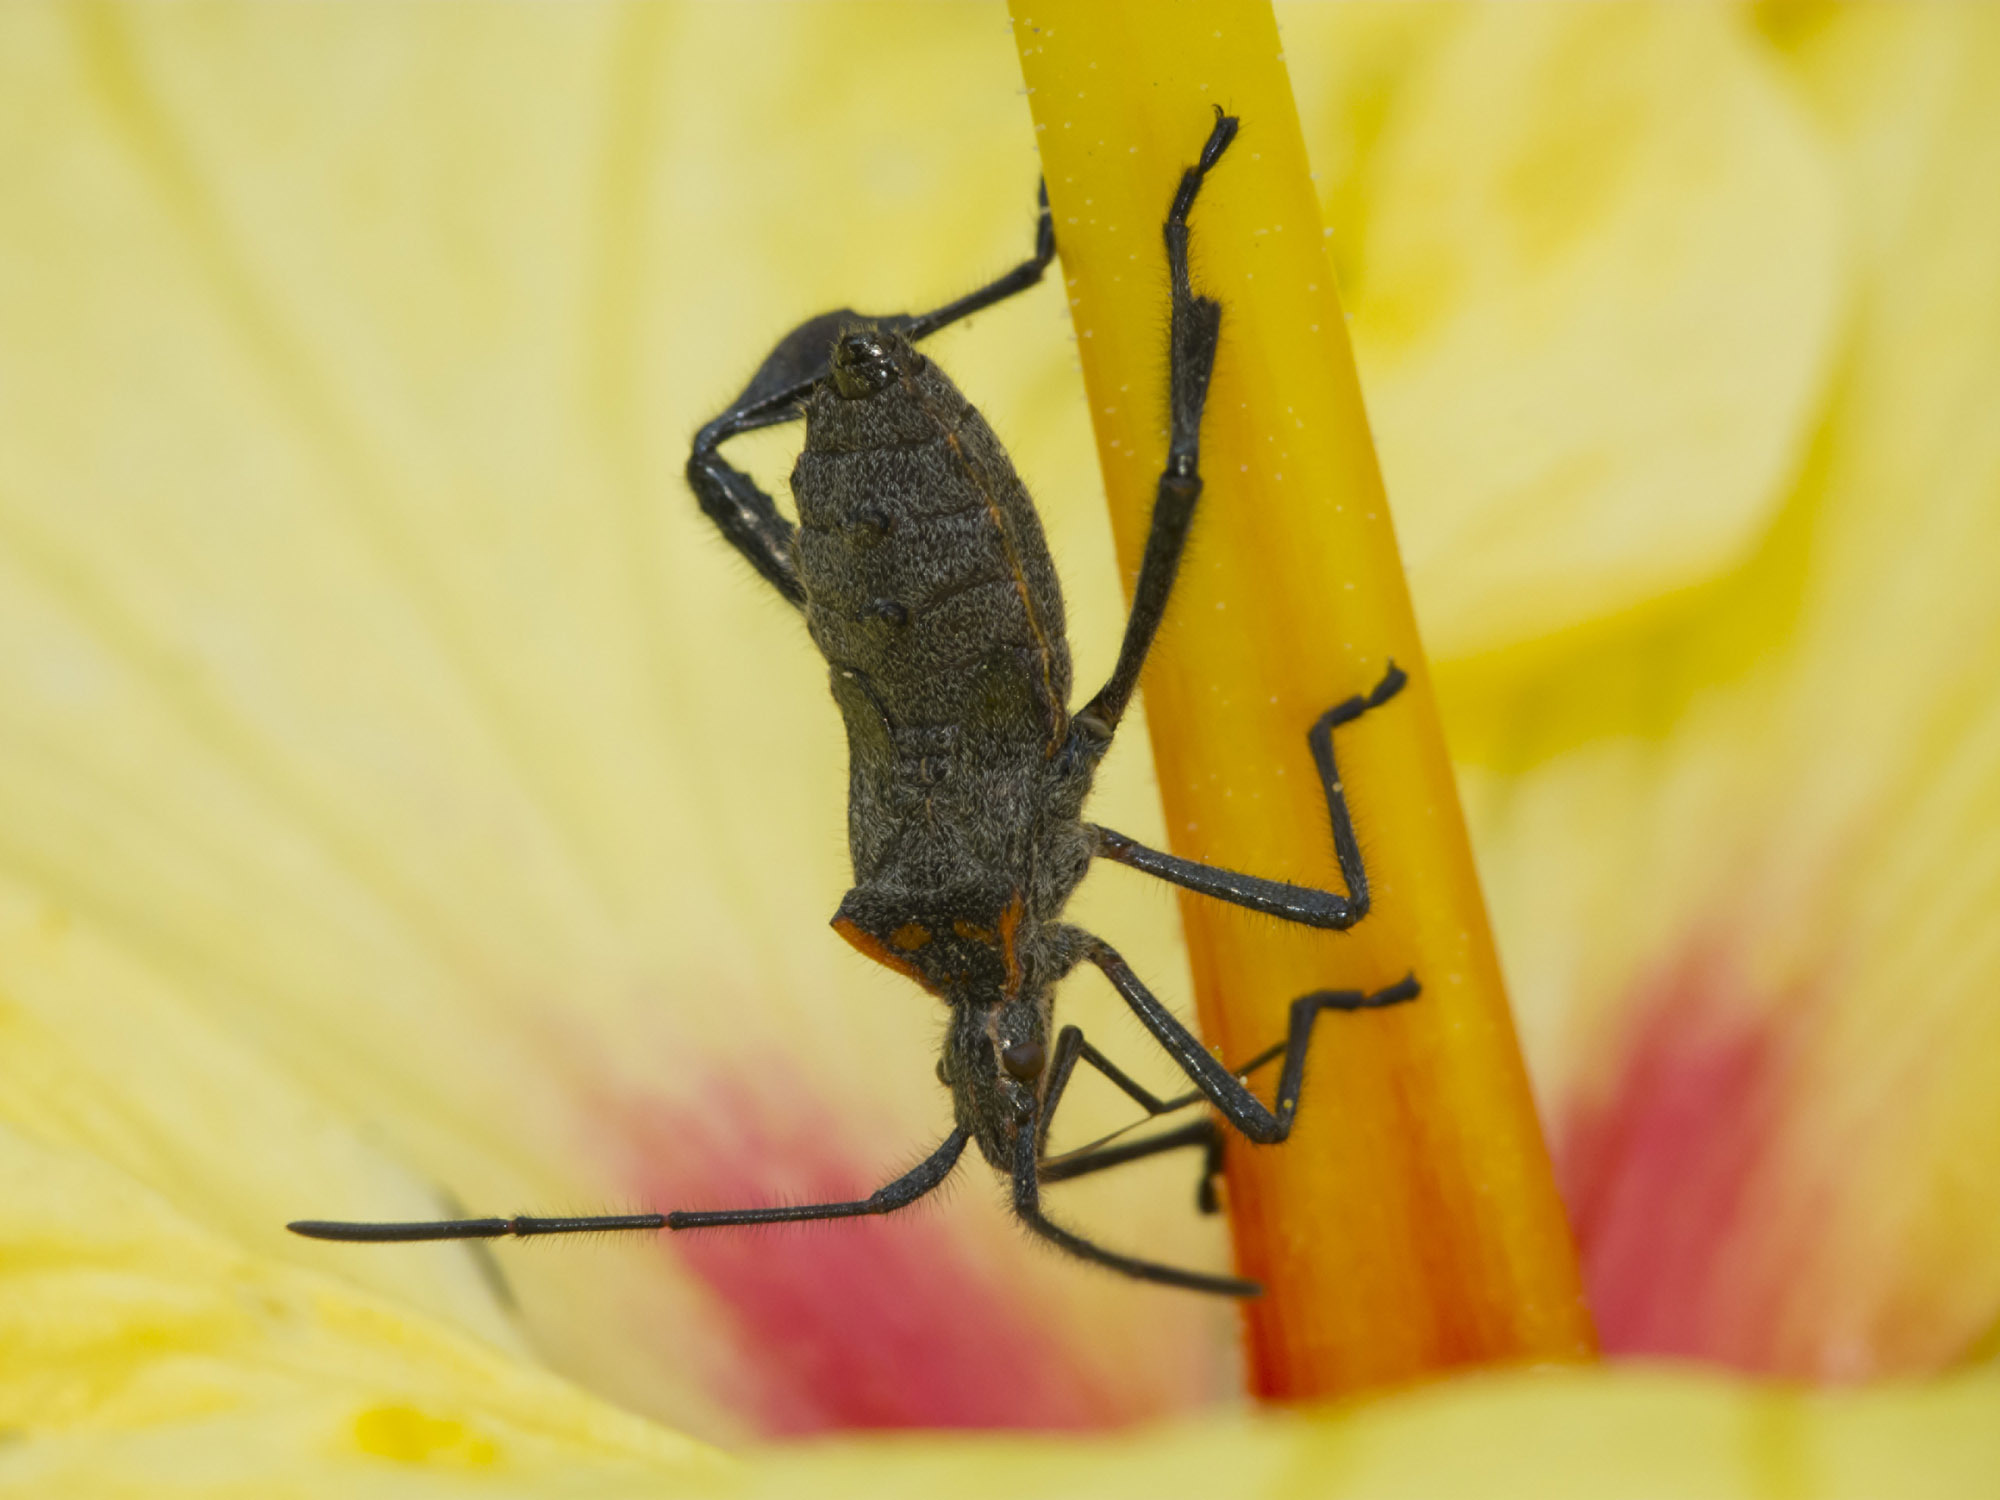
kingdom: Animalia
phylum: Arthropoda
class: Insecta
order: Hemiptera
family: Coreidae
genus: Leptoglossus
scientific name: Leptoglossus
